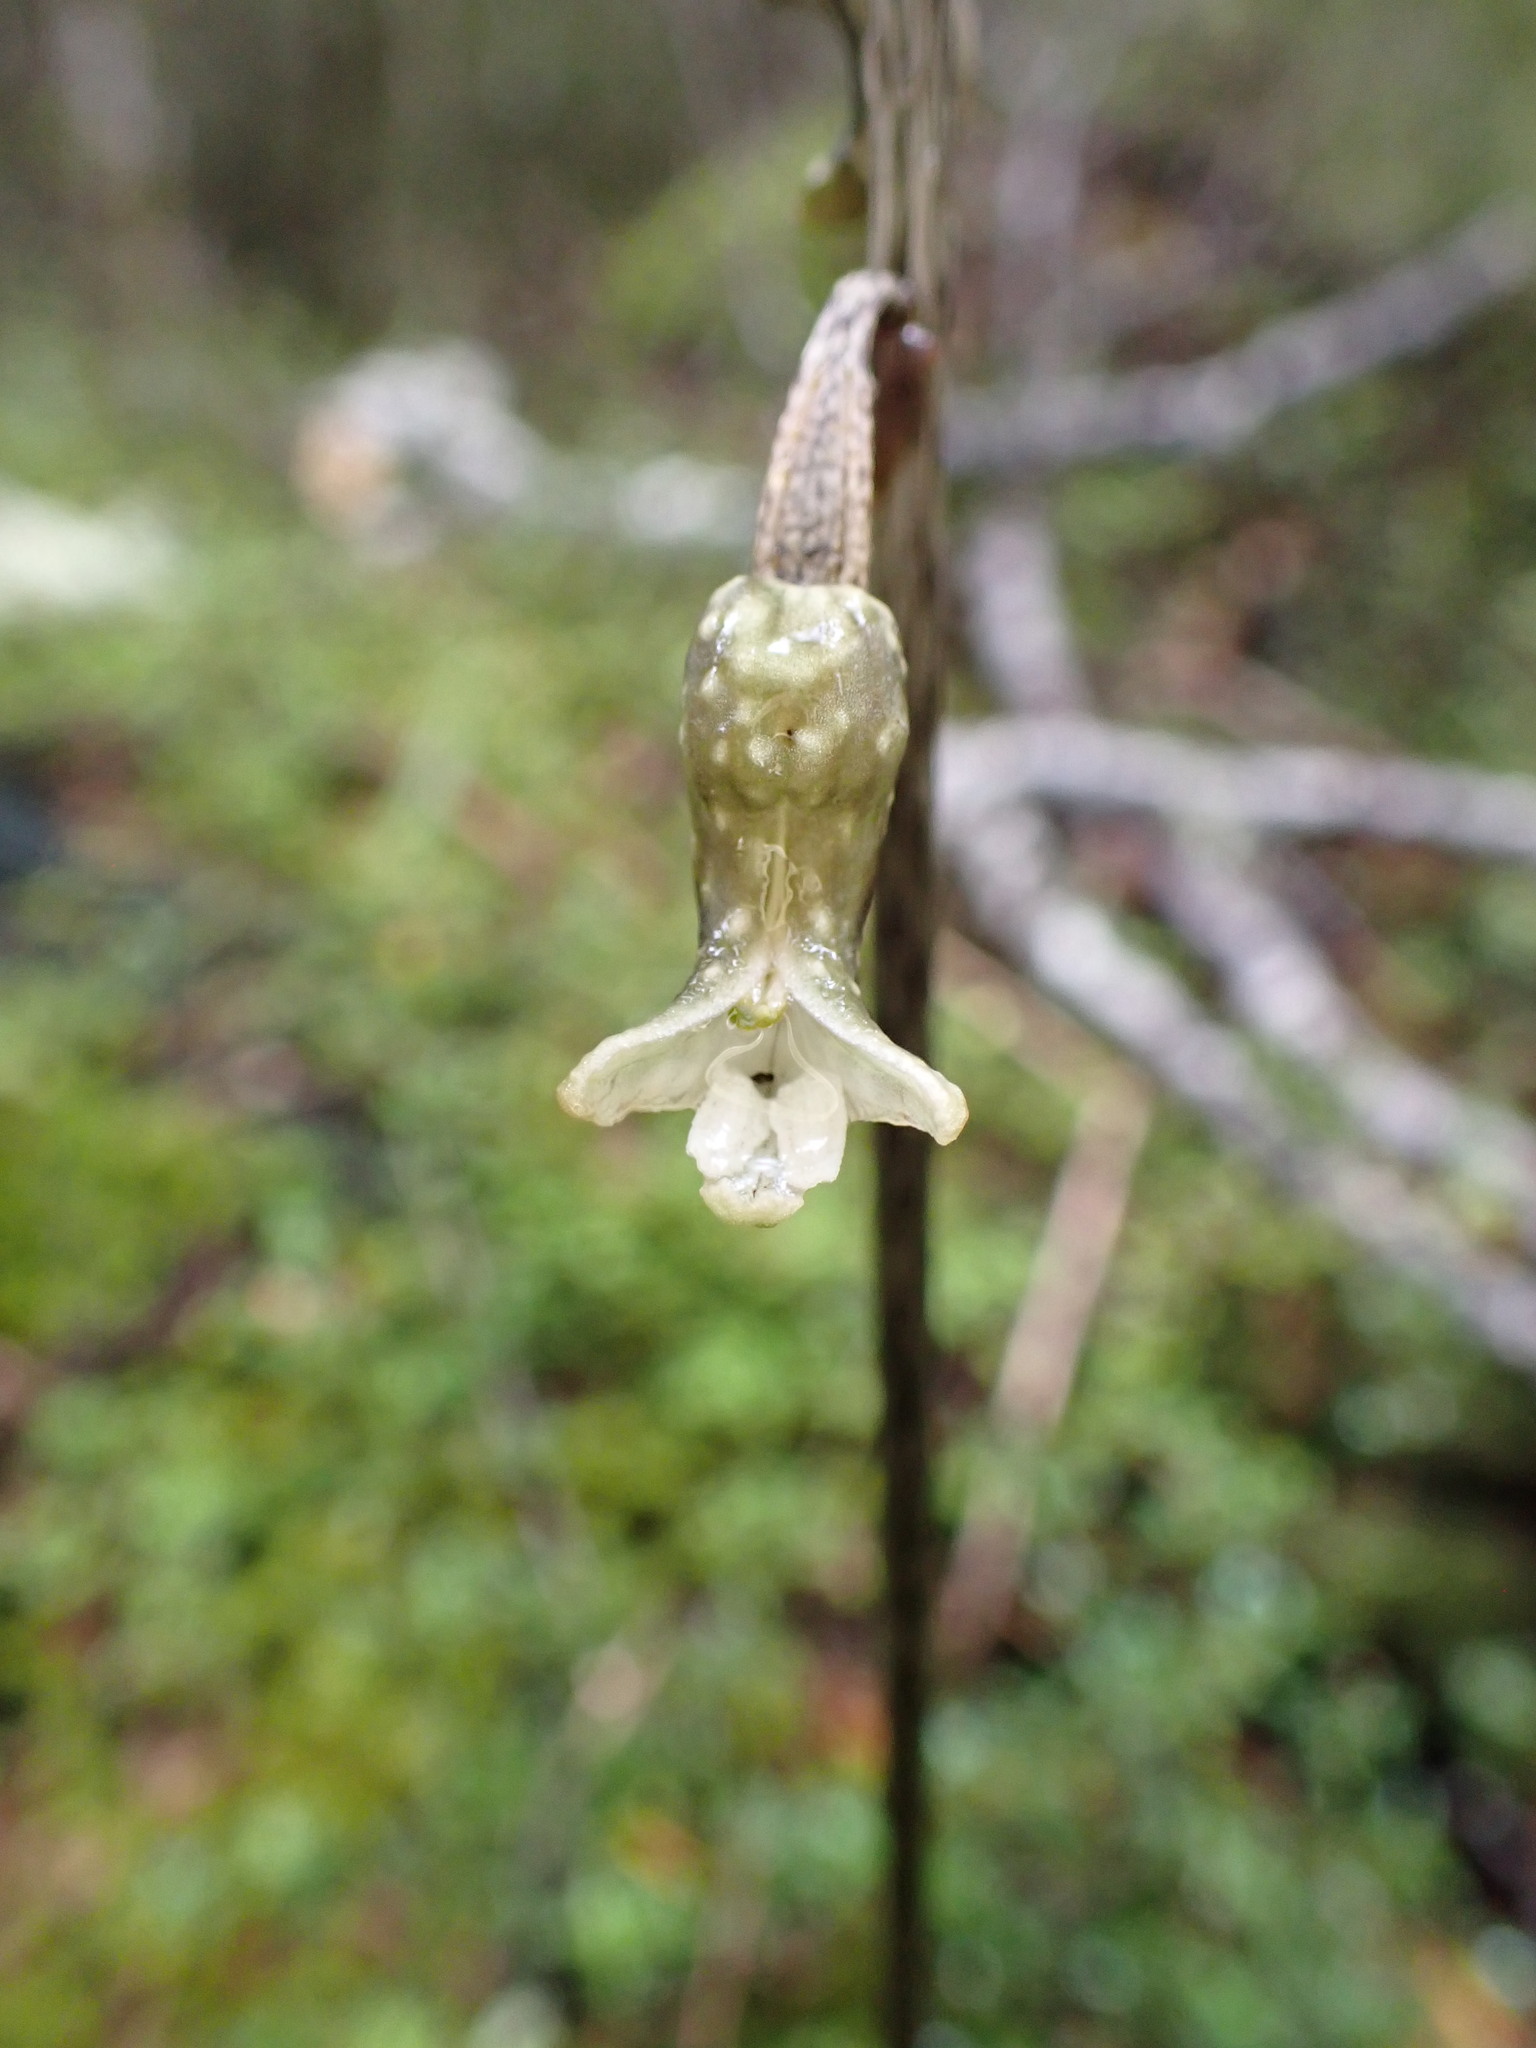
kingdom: Plantae
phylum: Tracheophyta
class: Liliopsida
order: Asparagales
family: Orchidaceae
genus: Gastrodia
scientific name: Gastrodia cunninghamii
